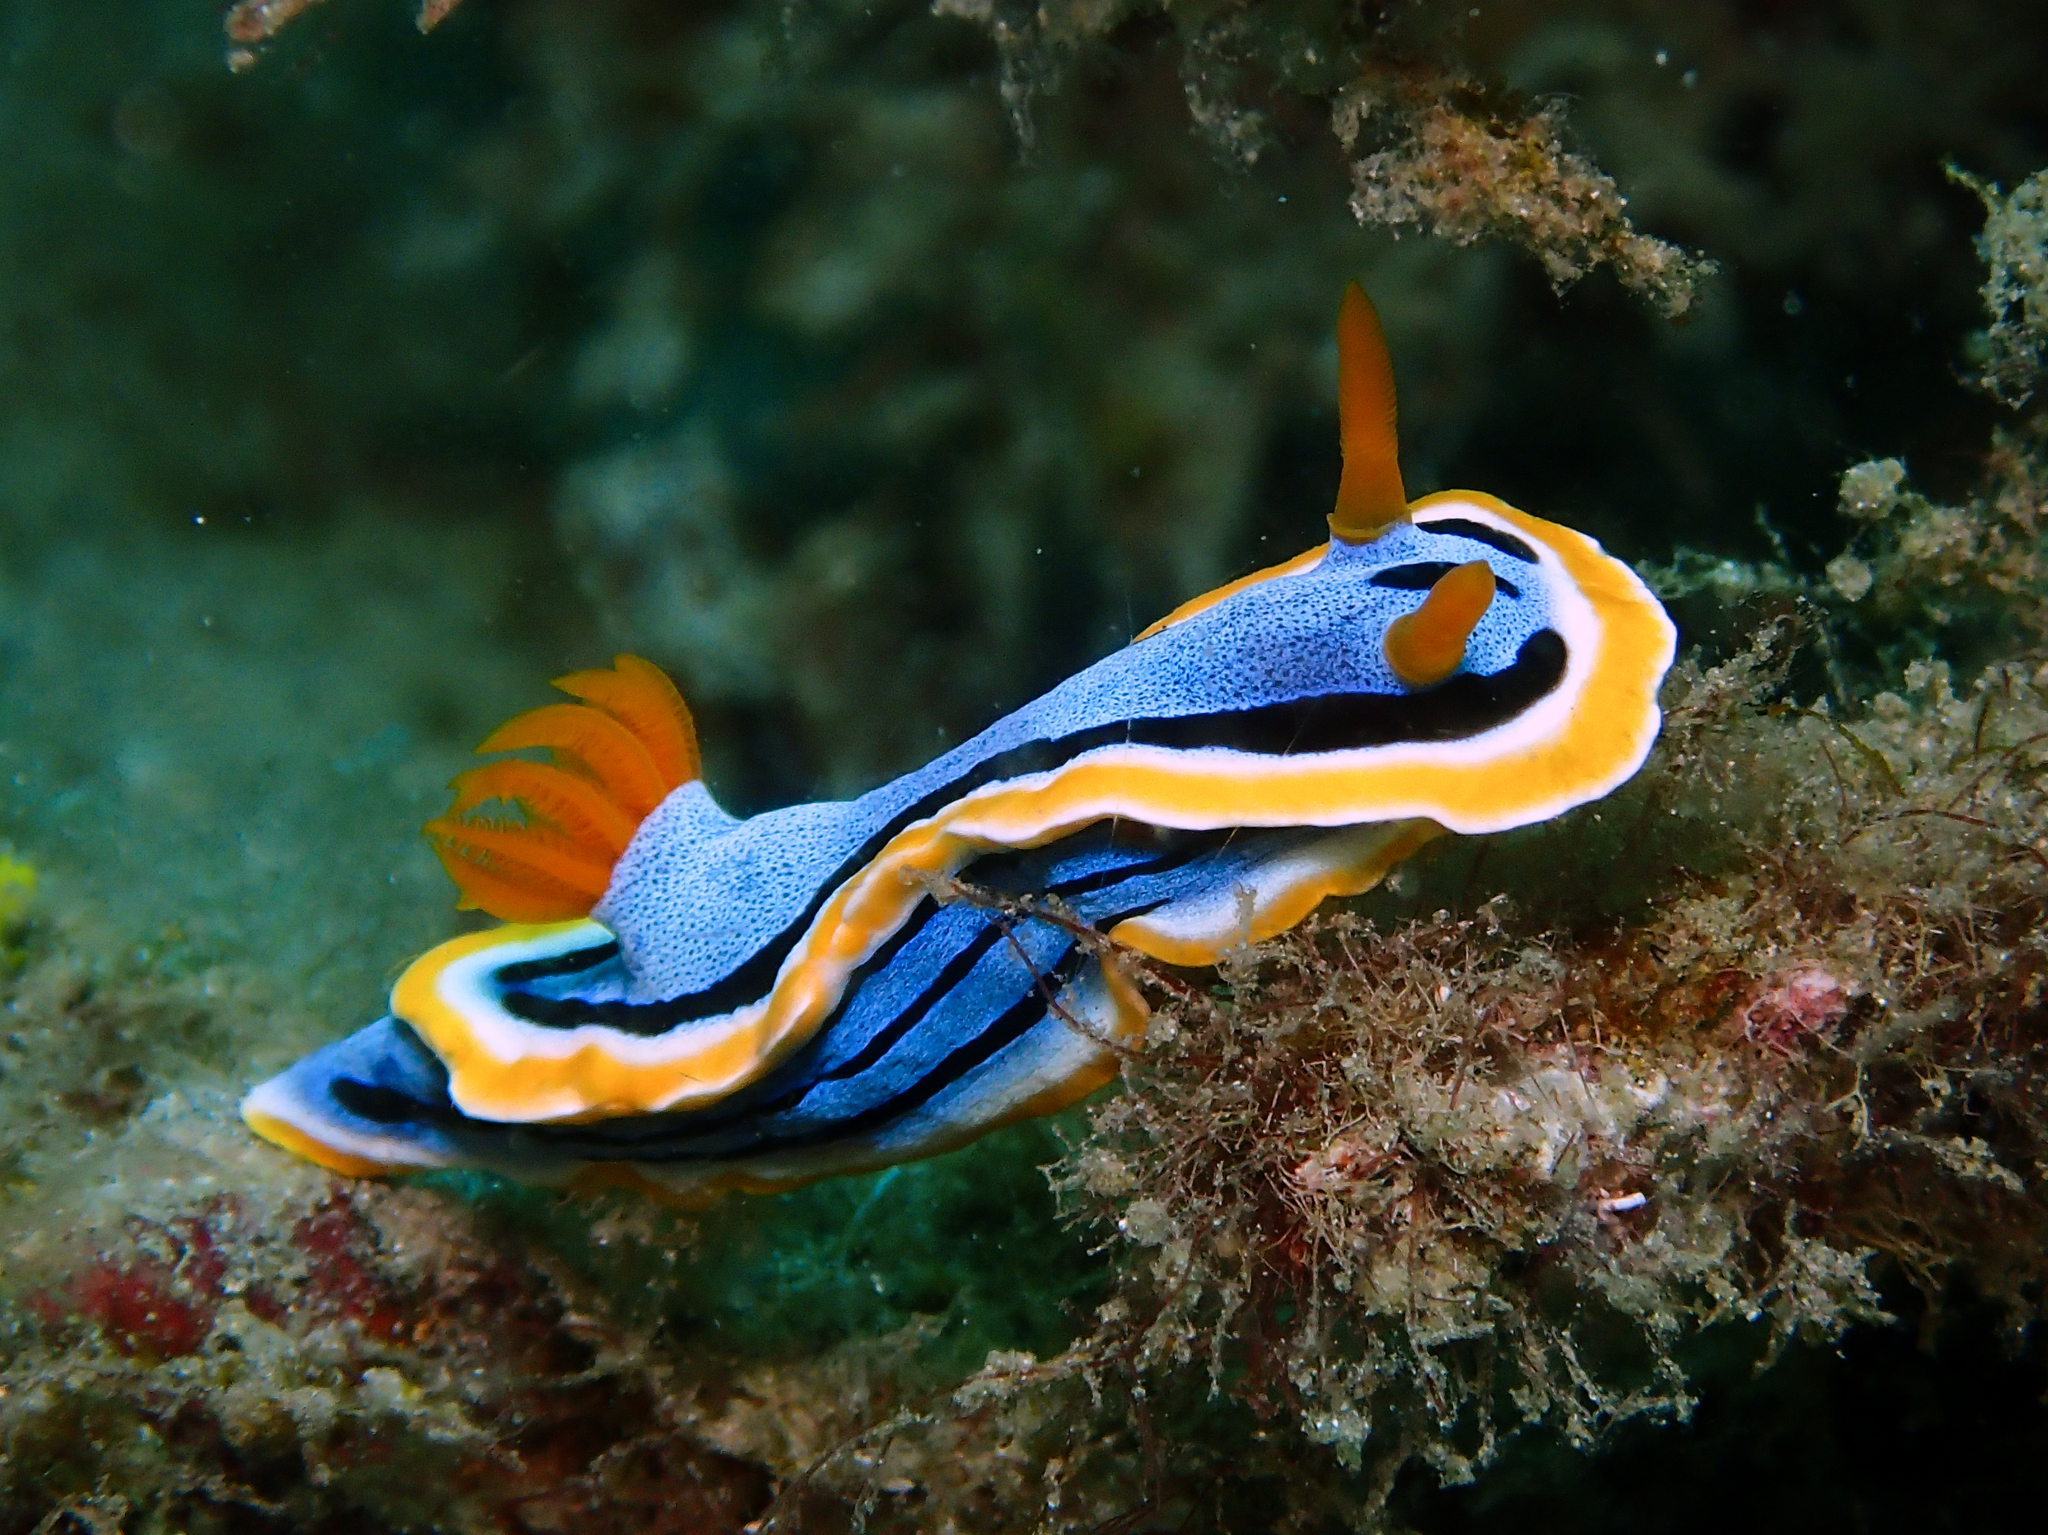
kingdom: Animalia
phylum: Mollusca
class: Gastropoda
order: Nudibranchia
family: Chromodorididae
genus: Chromodoris
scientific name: Chromodoris annae
